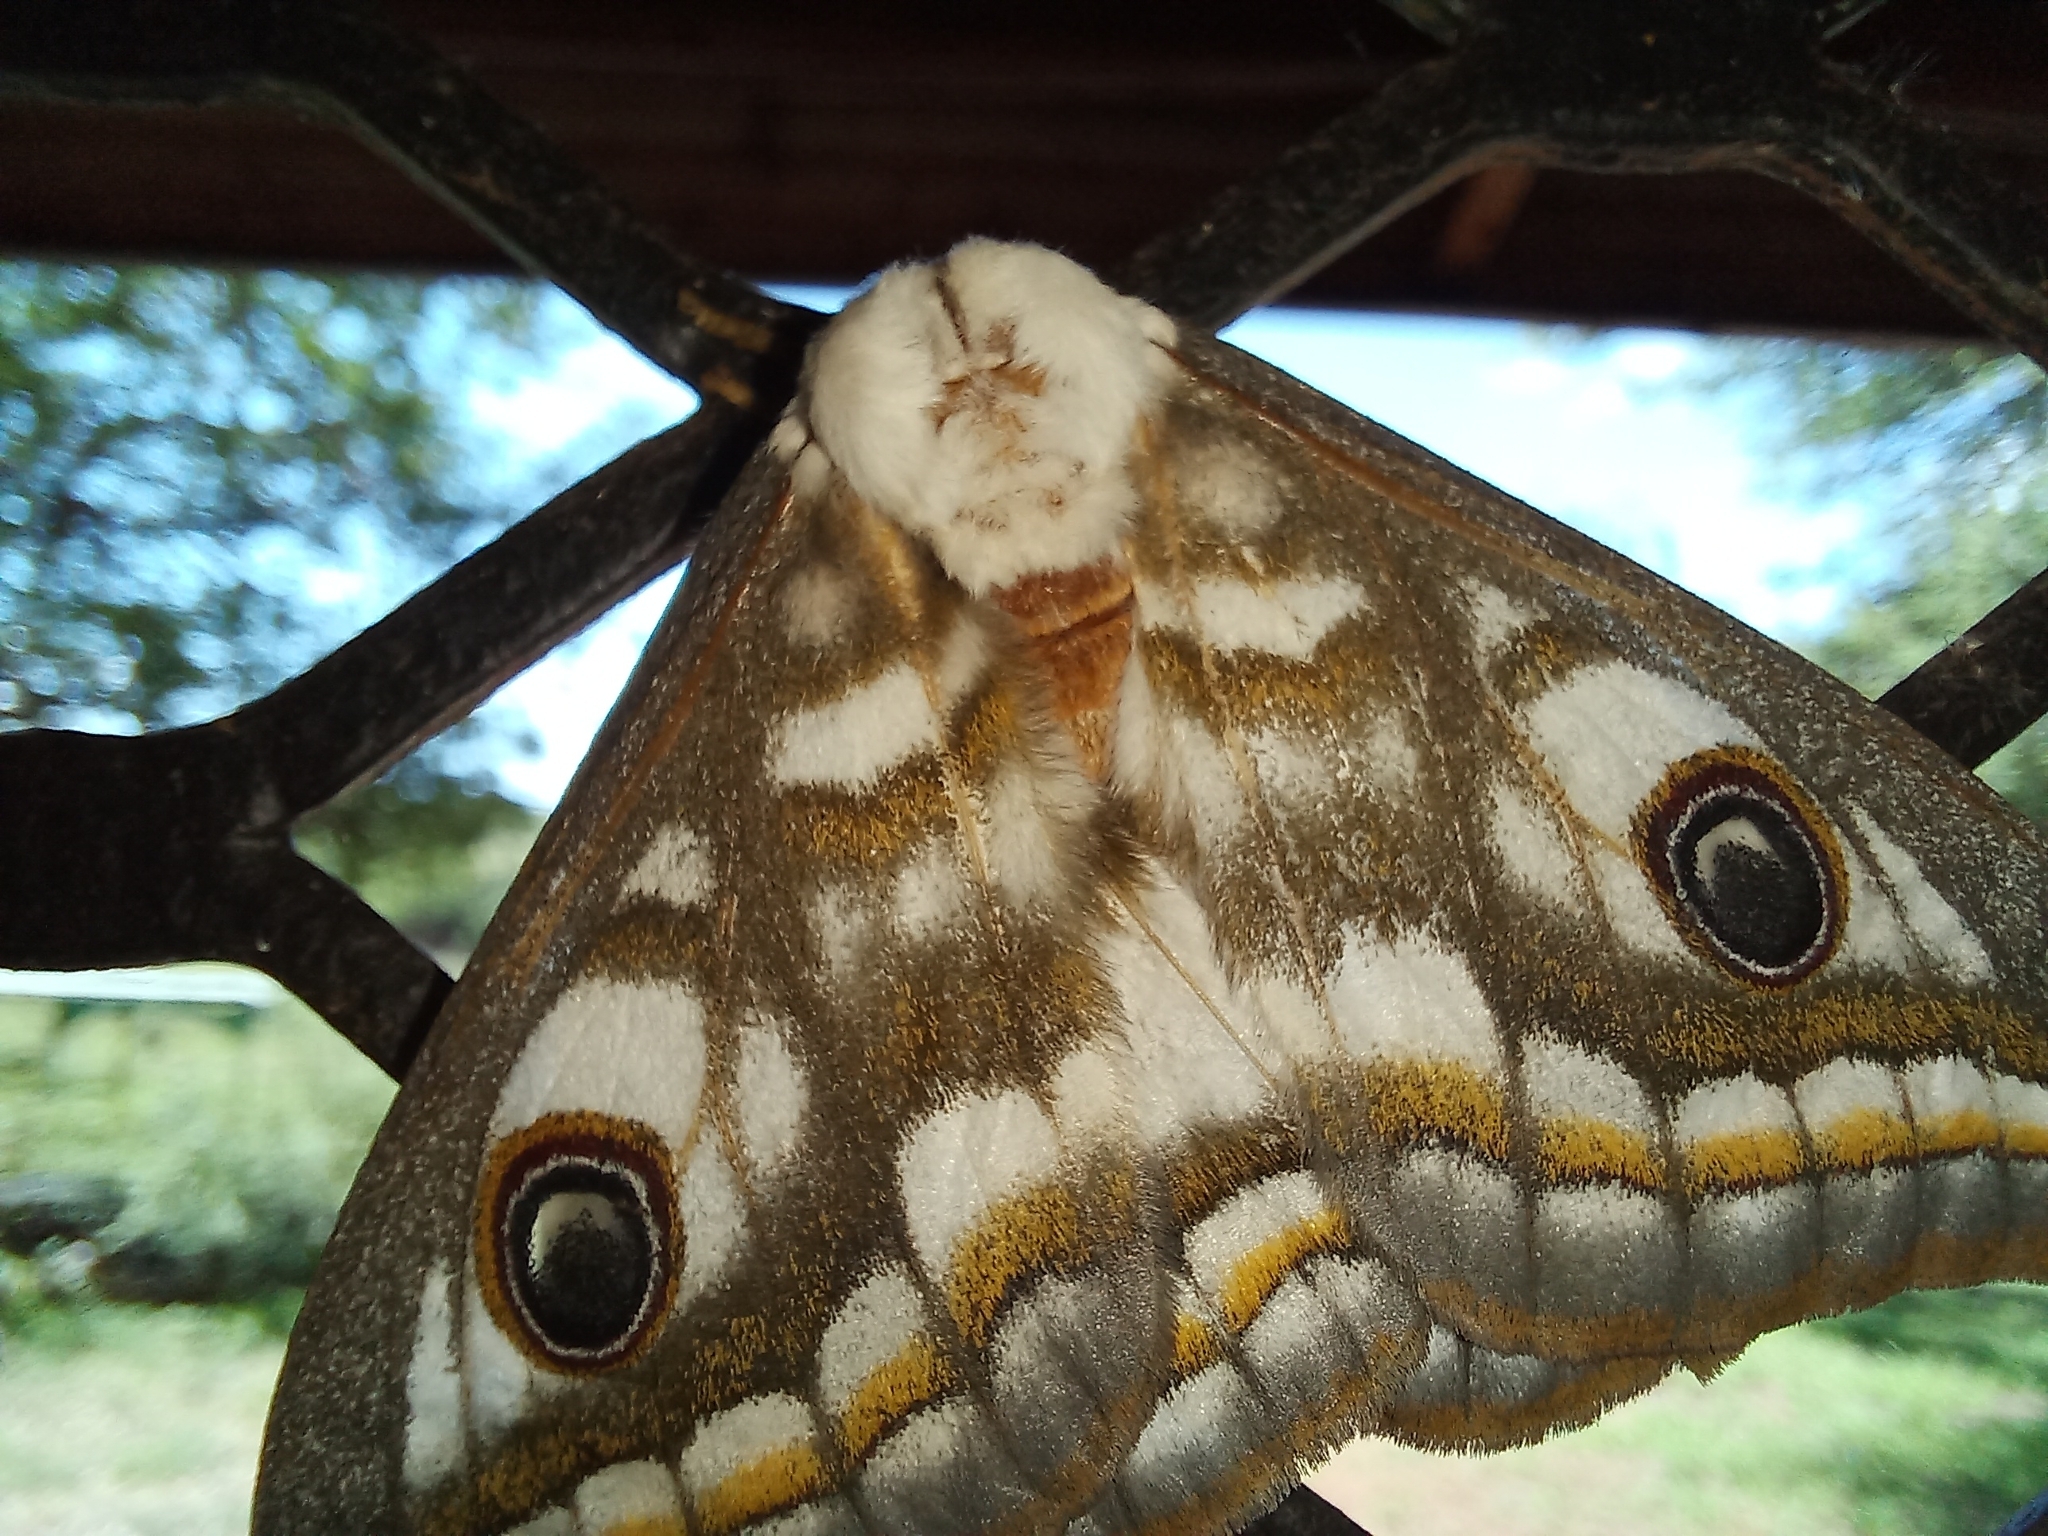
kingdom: Animalia
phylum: Arthropoda
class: Insecta
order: Lepidoptera
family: Saturniidae
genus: Heniocha
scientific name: Heniocha dyops
